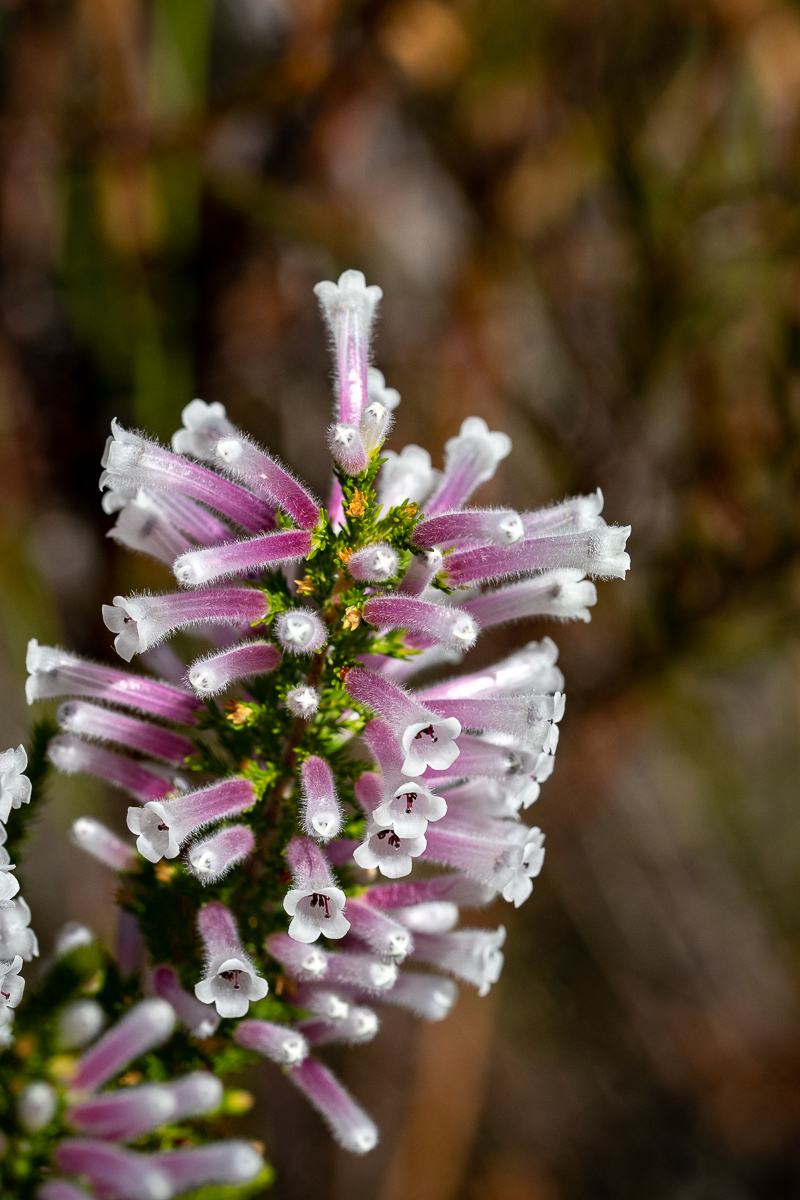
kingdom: Plantae
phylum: Tracheophyta
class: Magnoliopsida
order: Ericales
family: Ericaceae
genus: Erica
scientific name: Erica perspicua
